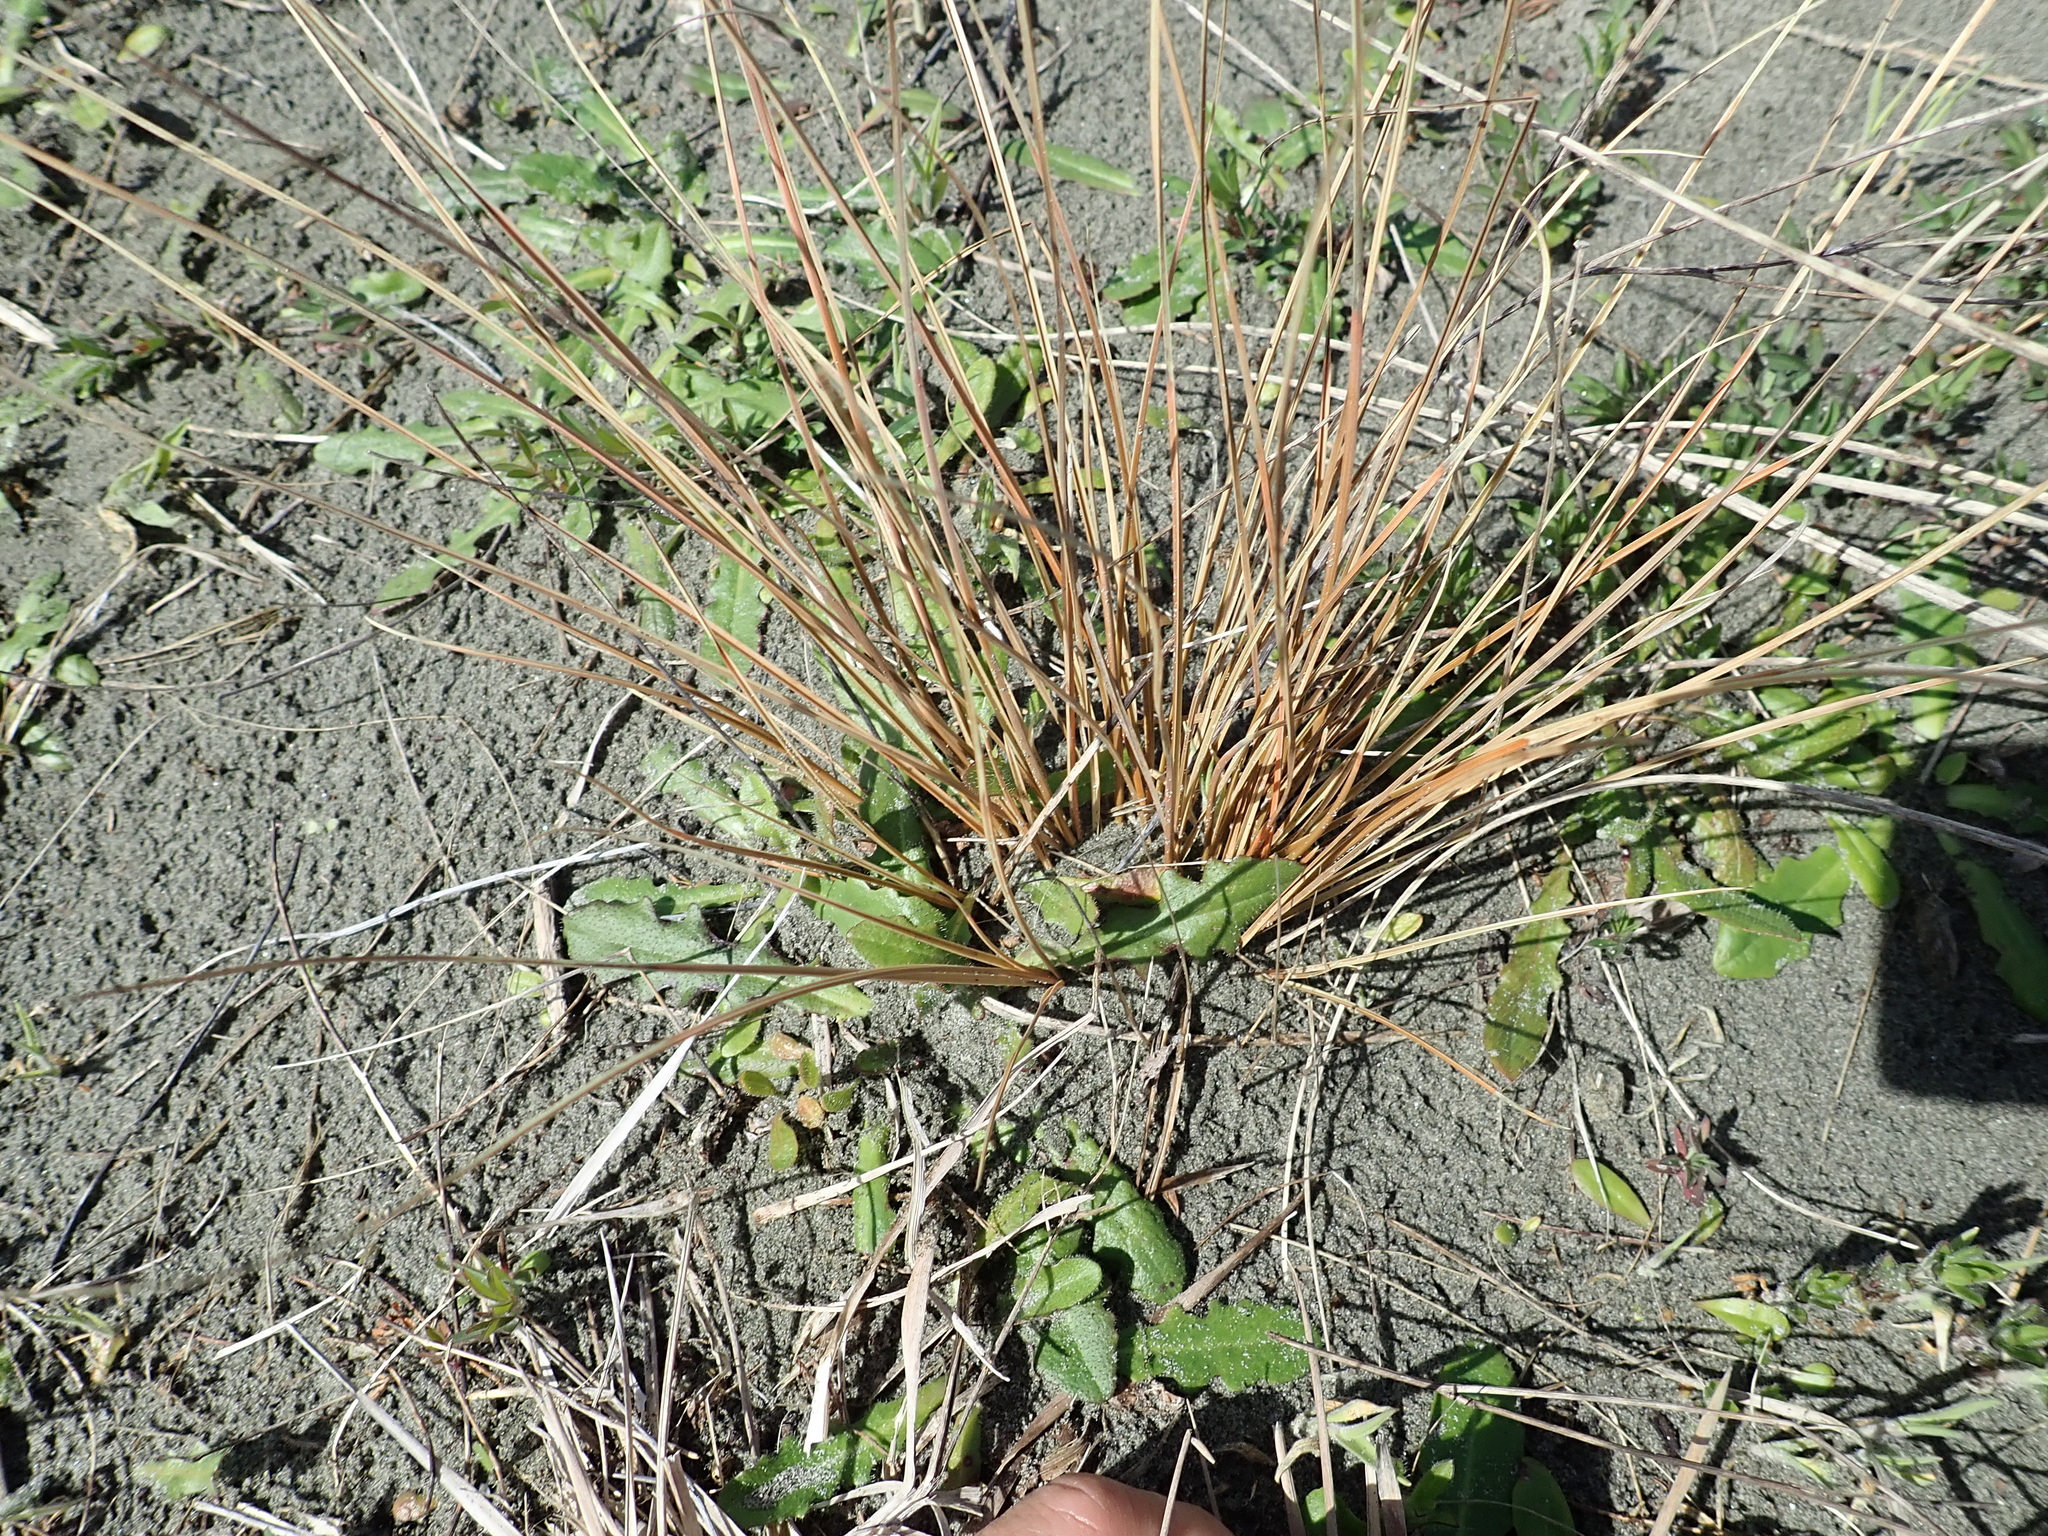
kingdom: Plantae
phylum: Tracheophyta
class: Liliopsida
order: Poales
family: Cyperaceae
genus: Carex
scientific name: Carex testacea
